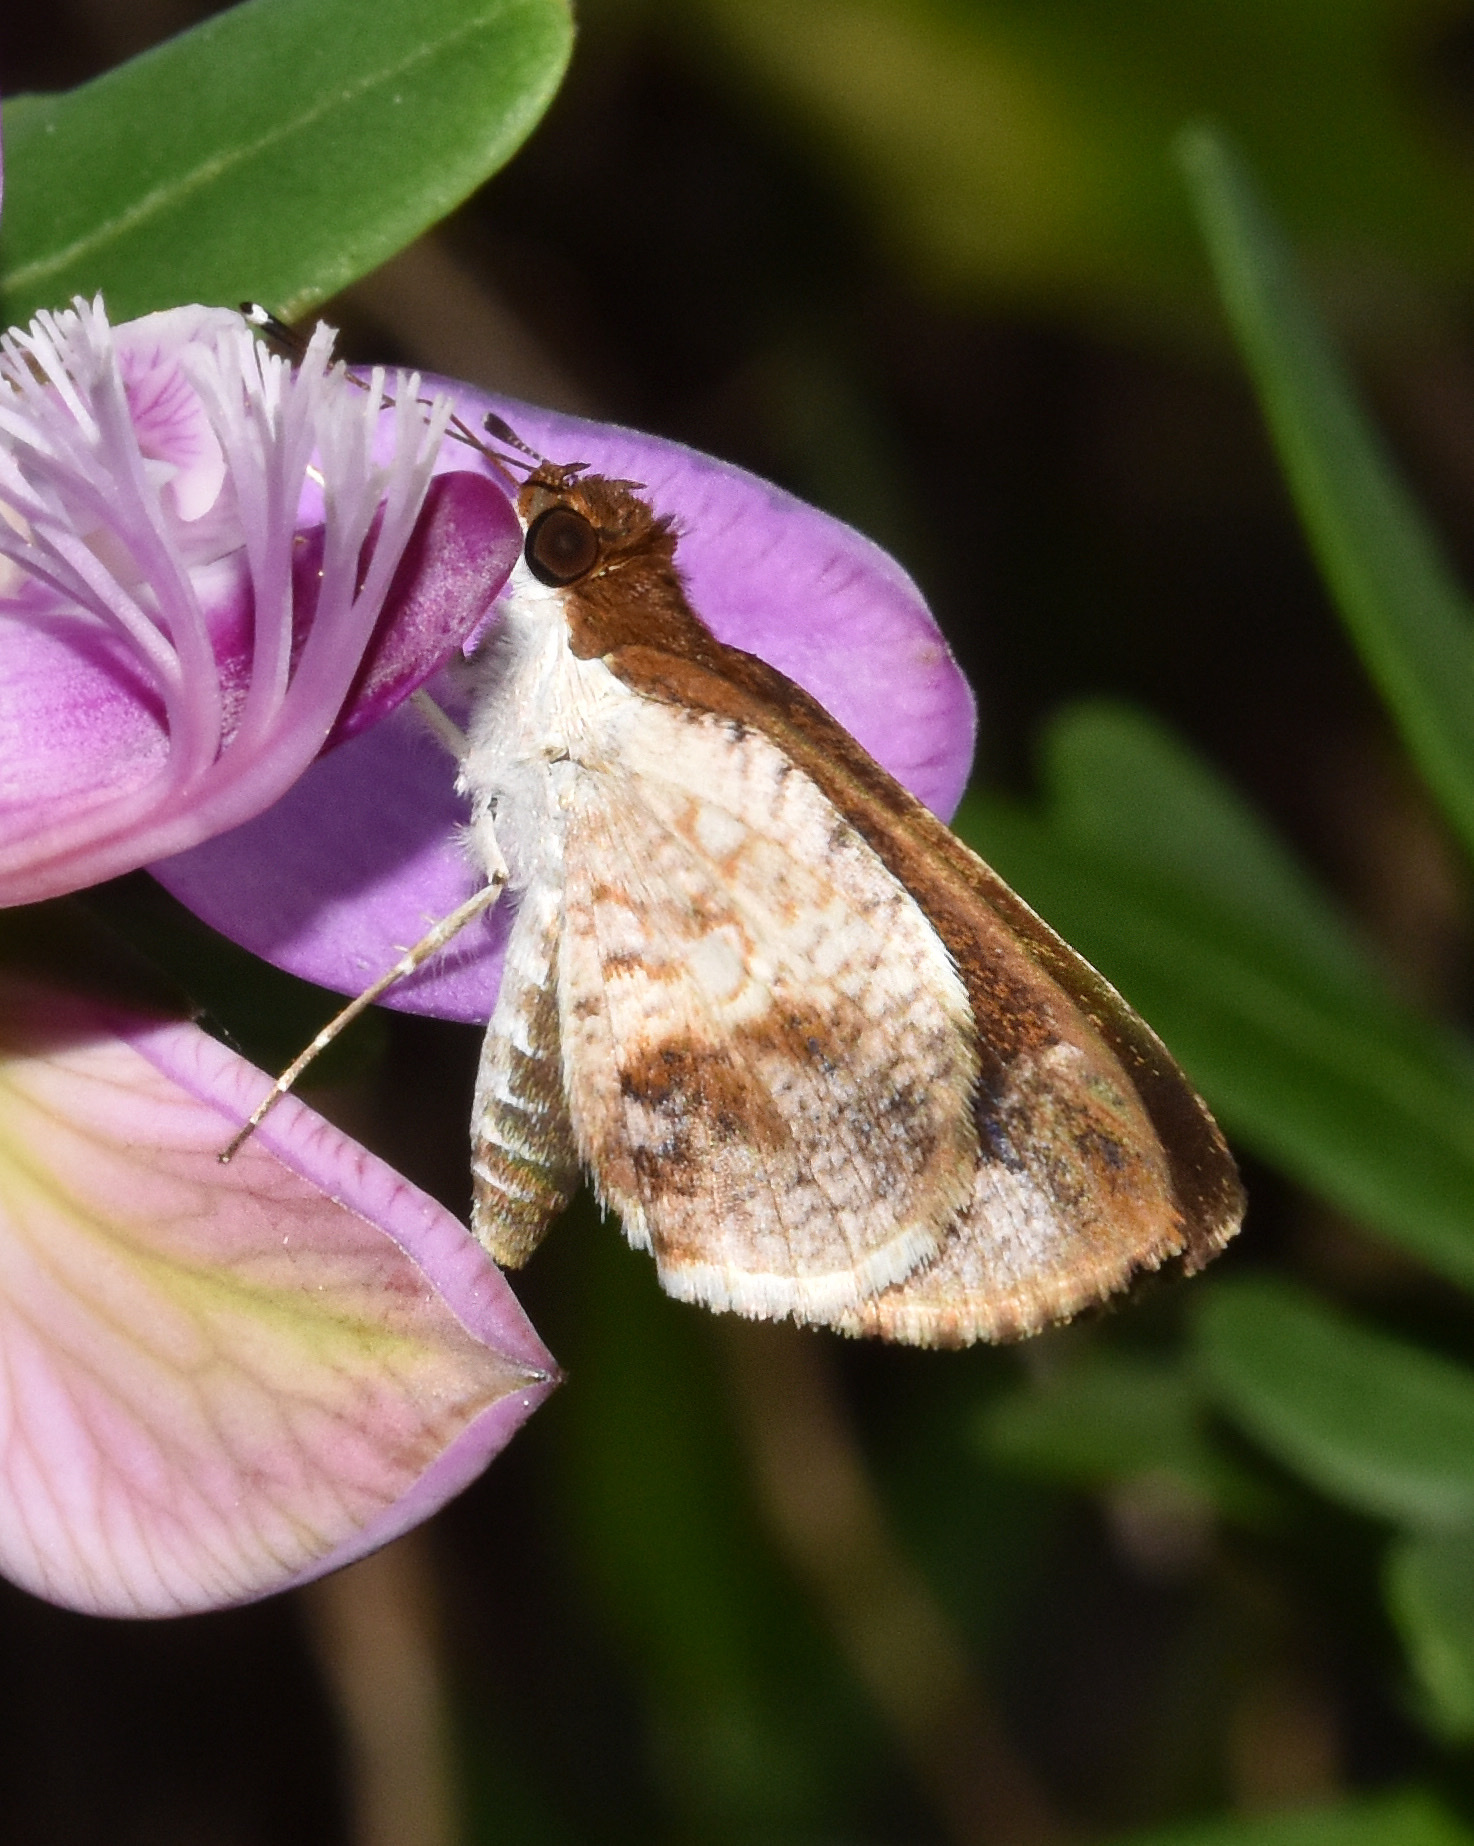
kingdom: Animalia
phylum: Arthropoda
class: Insecta
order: Lepidoptera
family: Hesperiidae
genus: Acleros
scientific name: Acleros mackenii
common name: Shade dart
